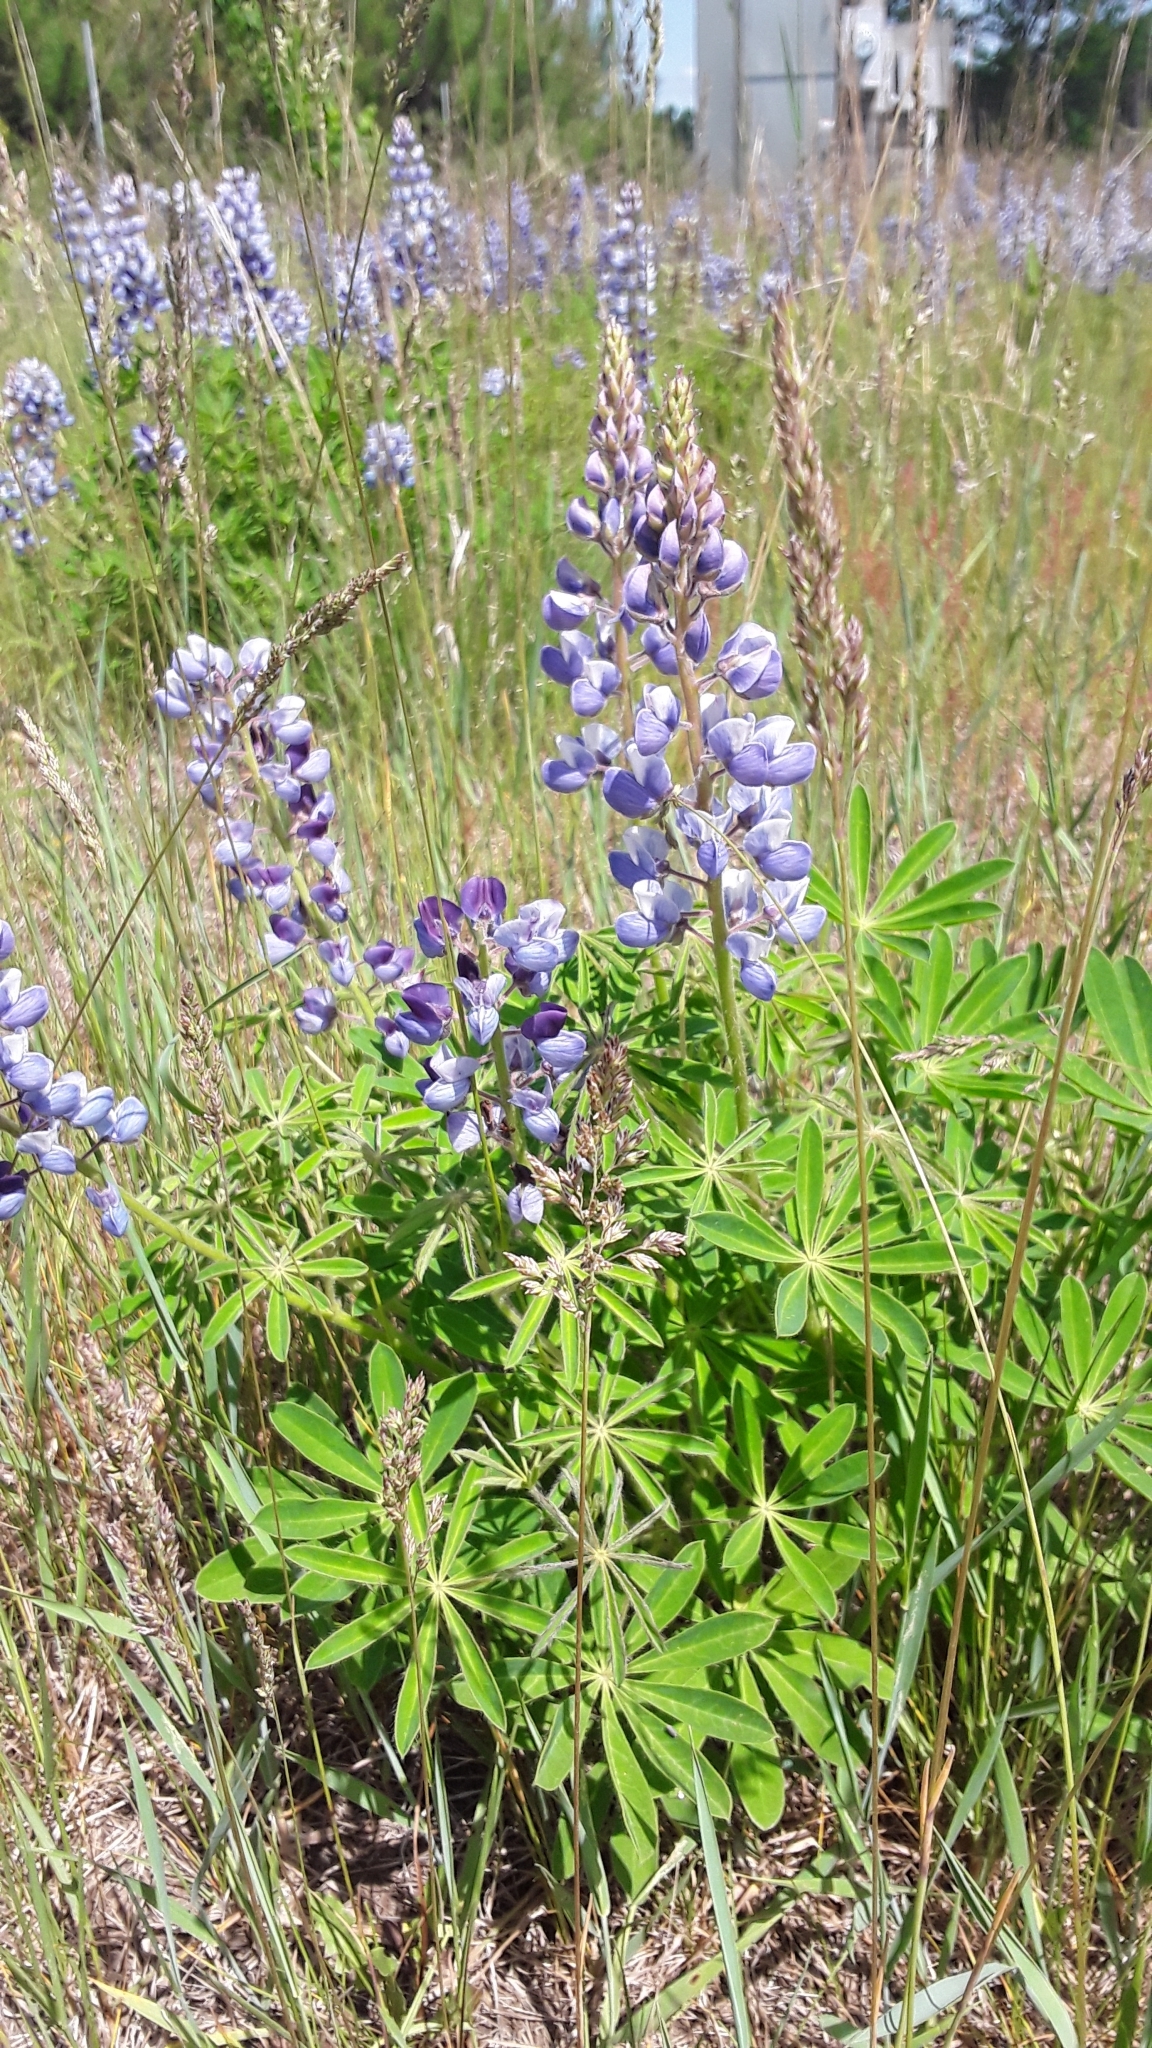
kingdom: Plantae
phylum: Tracheophyta
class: Magnoliopsida
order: Fabales
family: Fabaceae
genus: Lupinus
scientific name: Lupinus perennis
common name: Sundial lupine
